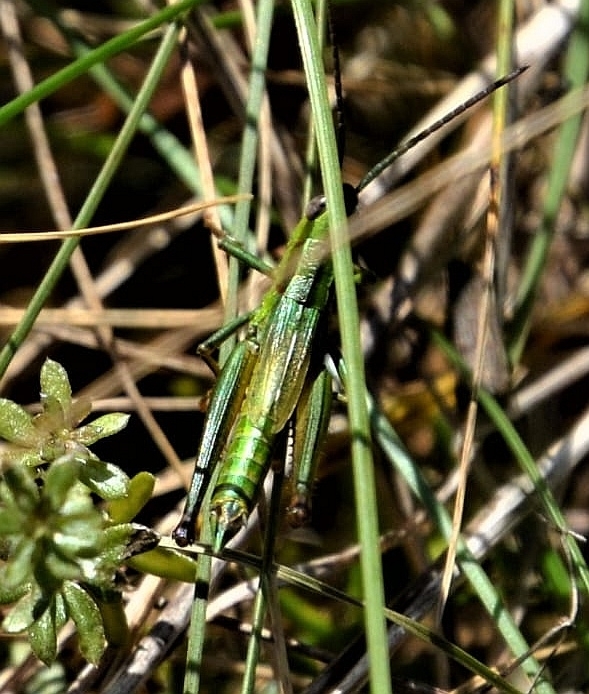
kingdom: Animalia
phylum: Arthropoda
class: Insecta
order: Orthoptera
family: Acrididae
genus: Euthystira
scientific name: Euthystira brachyptera
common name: Small gold grasshopper
